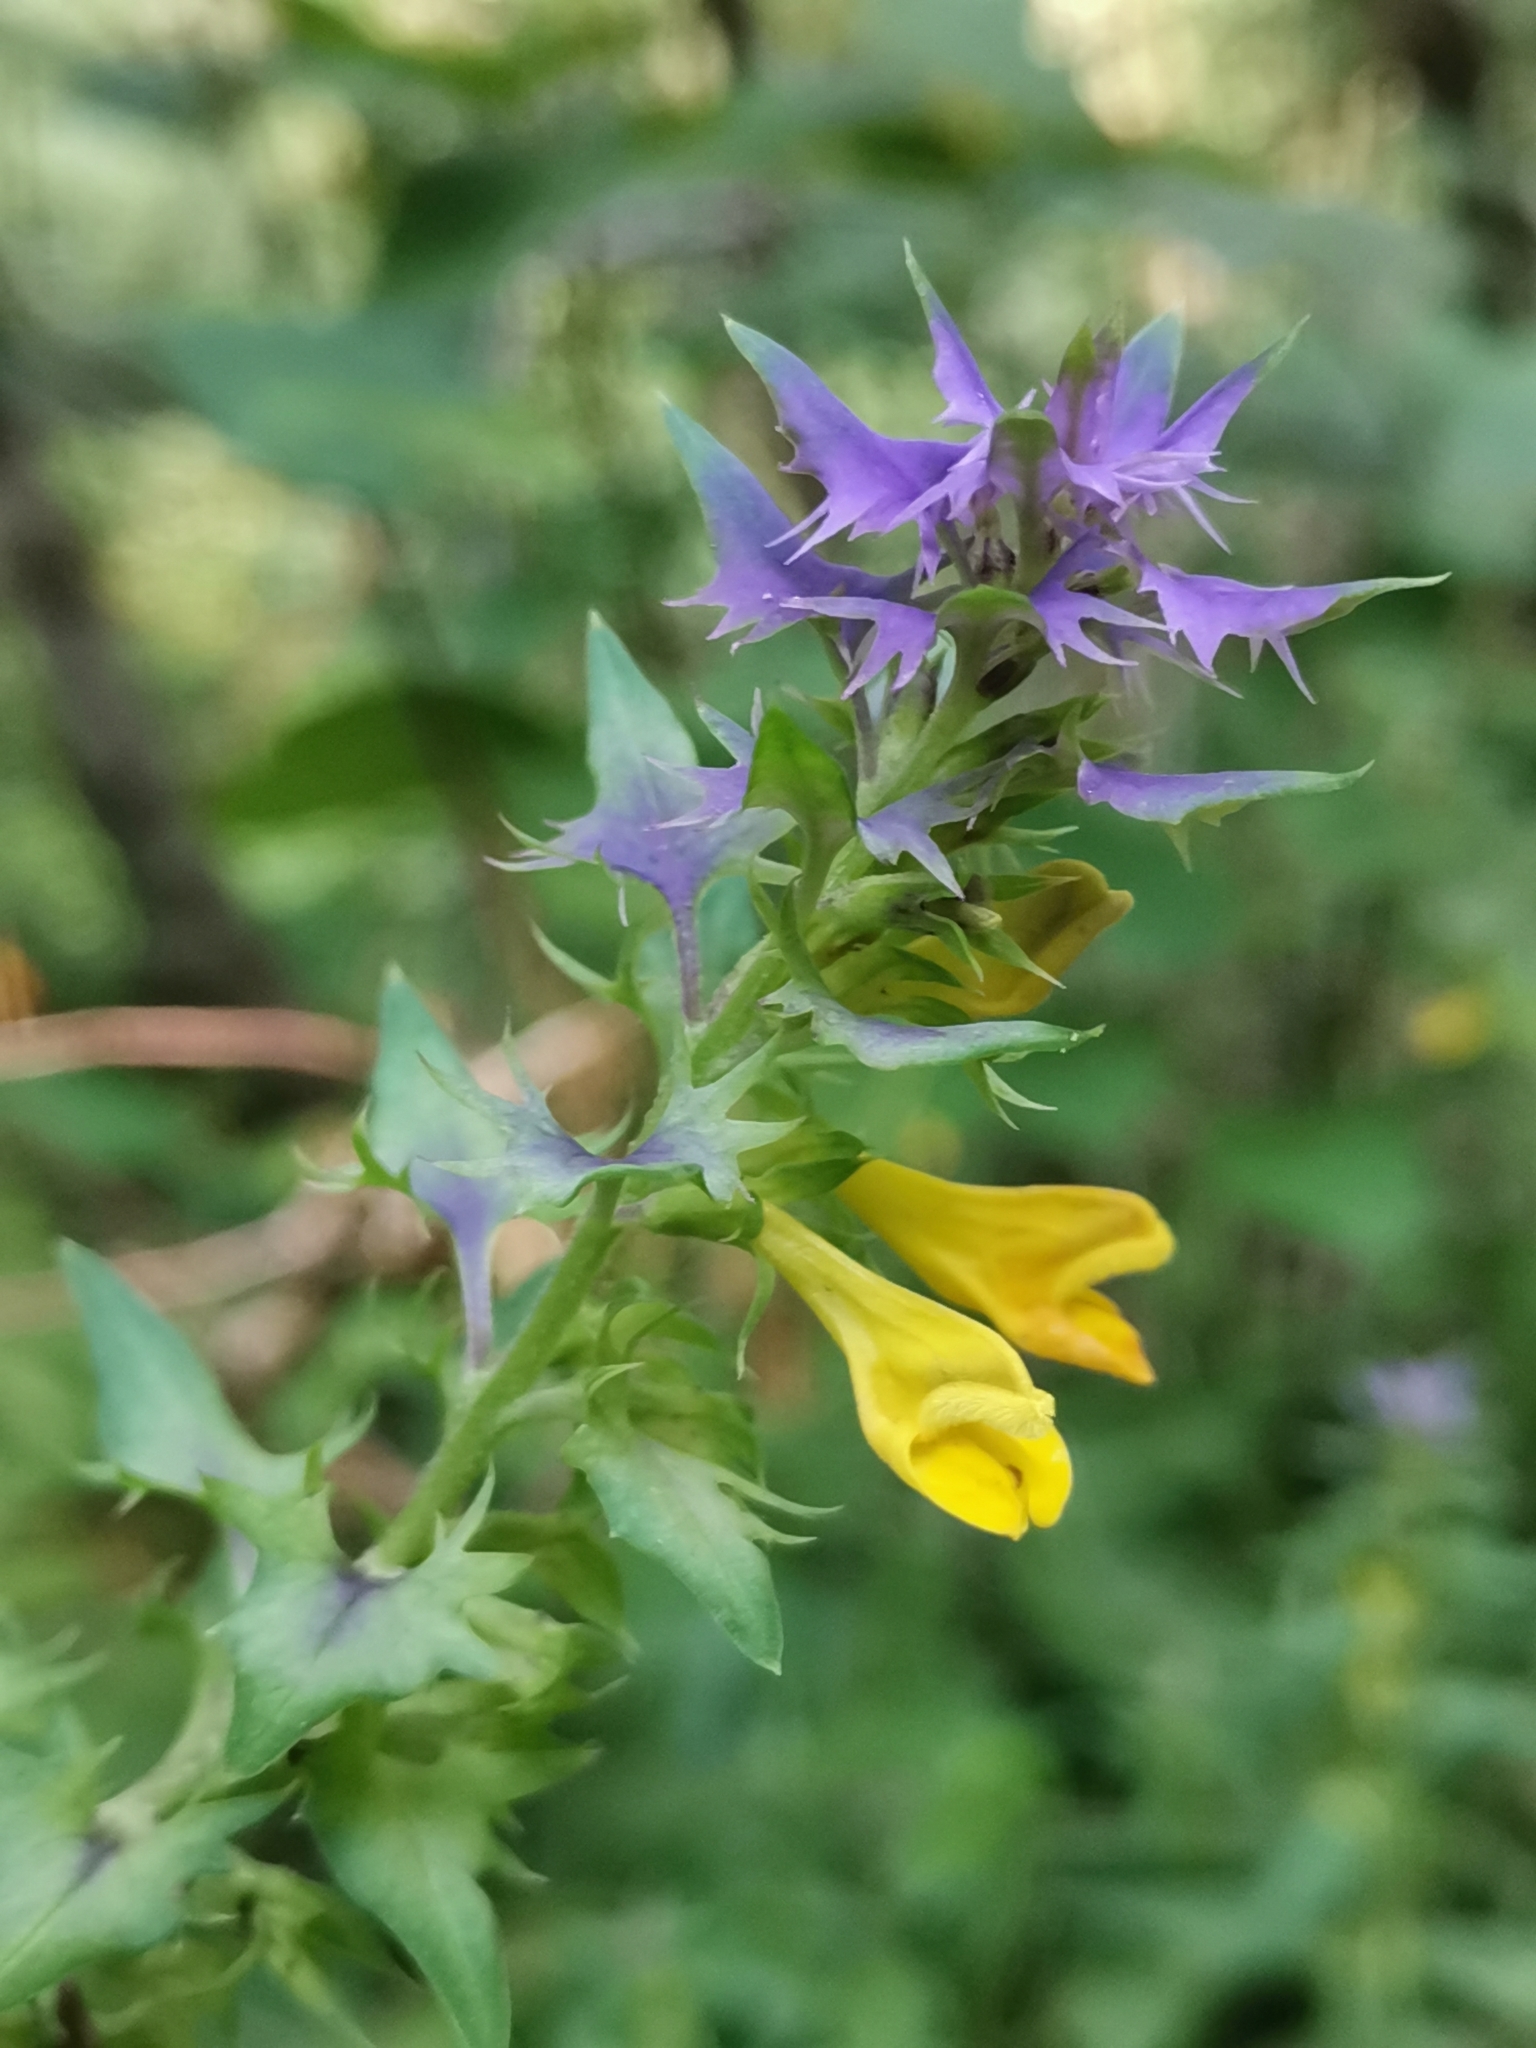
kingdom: Plantae
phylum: Tracheophyta
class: Magnoliopsida
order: Lamiales
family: Orobanchaceae
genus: Melampyrum
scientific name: Melampyrum nemorosum
